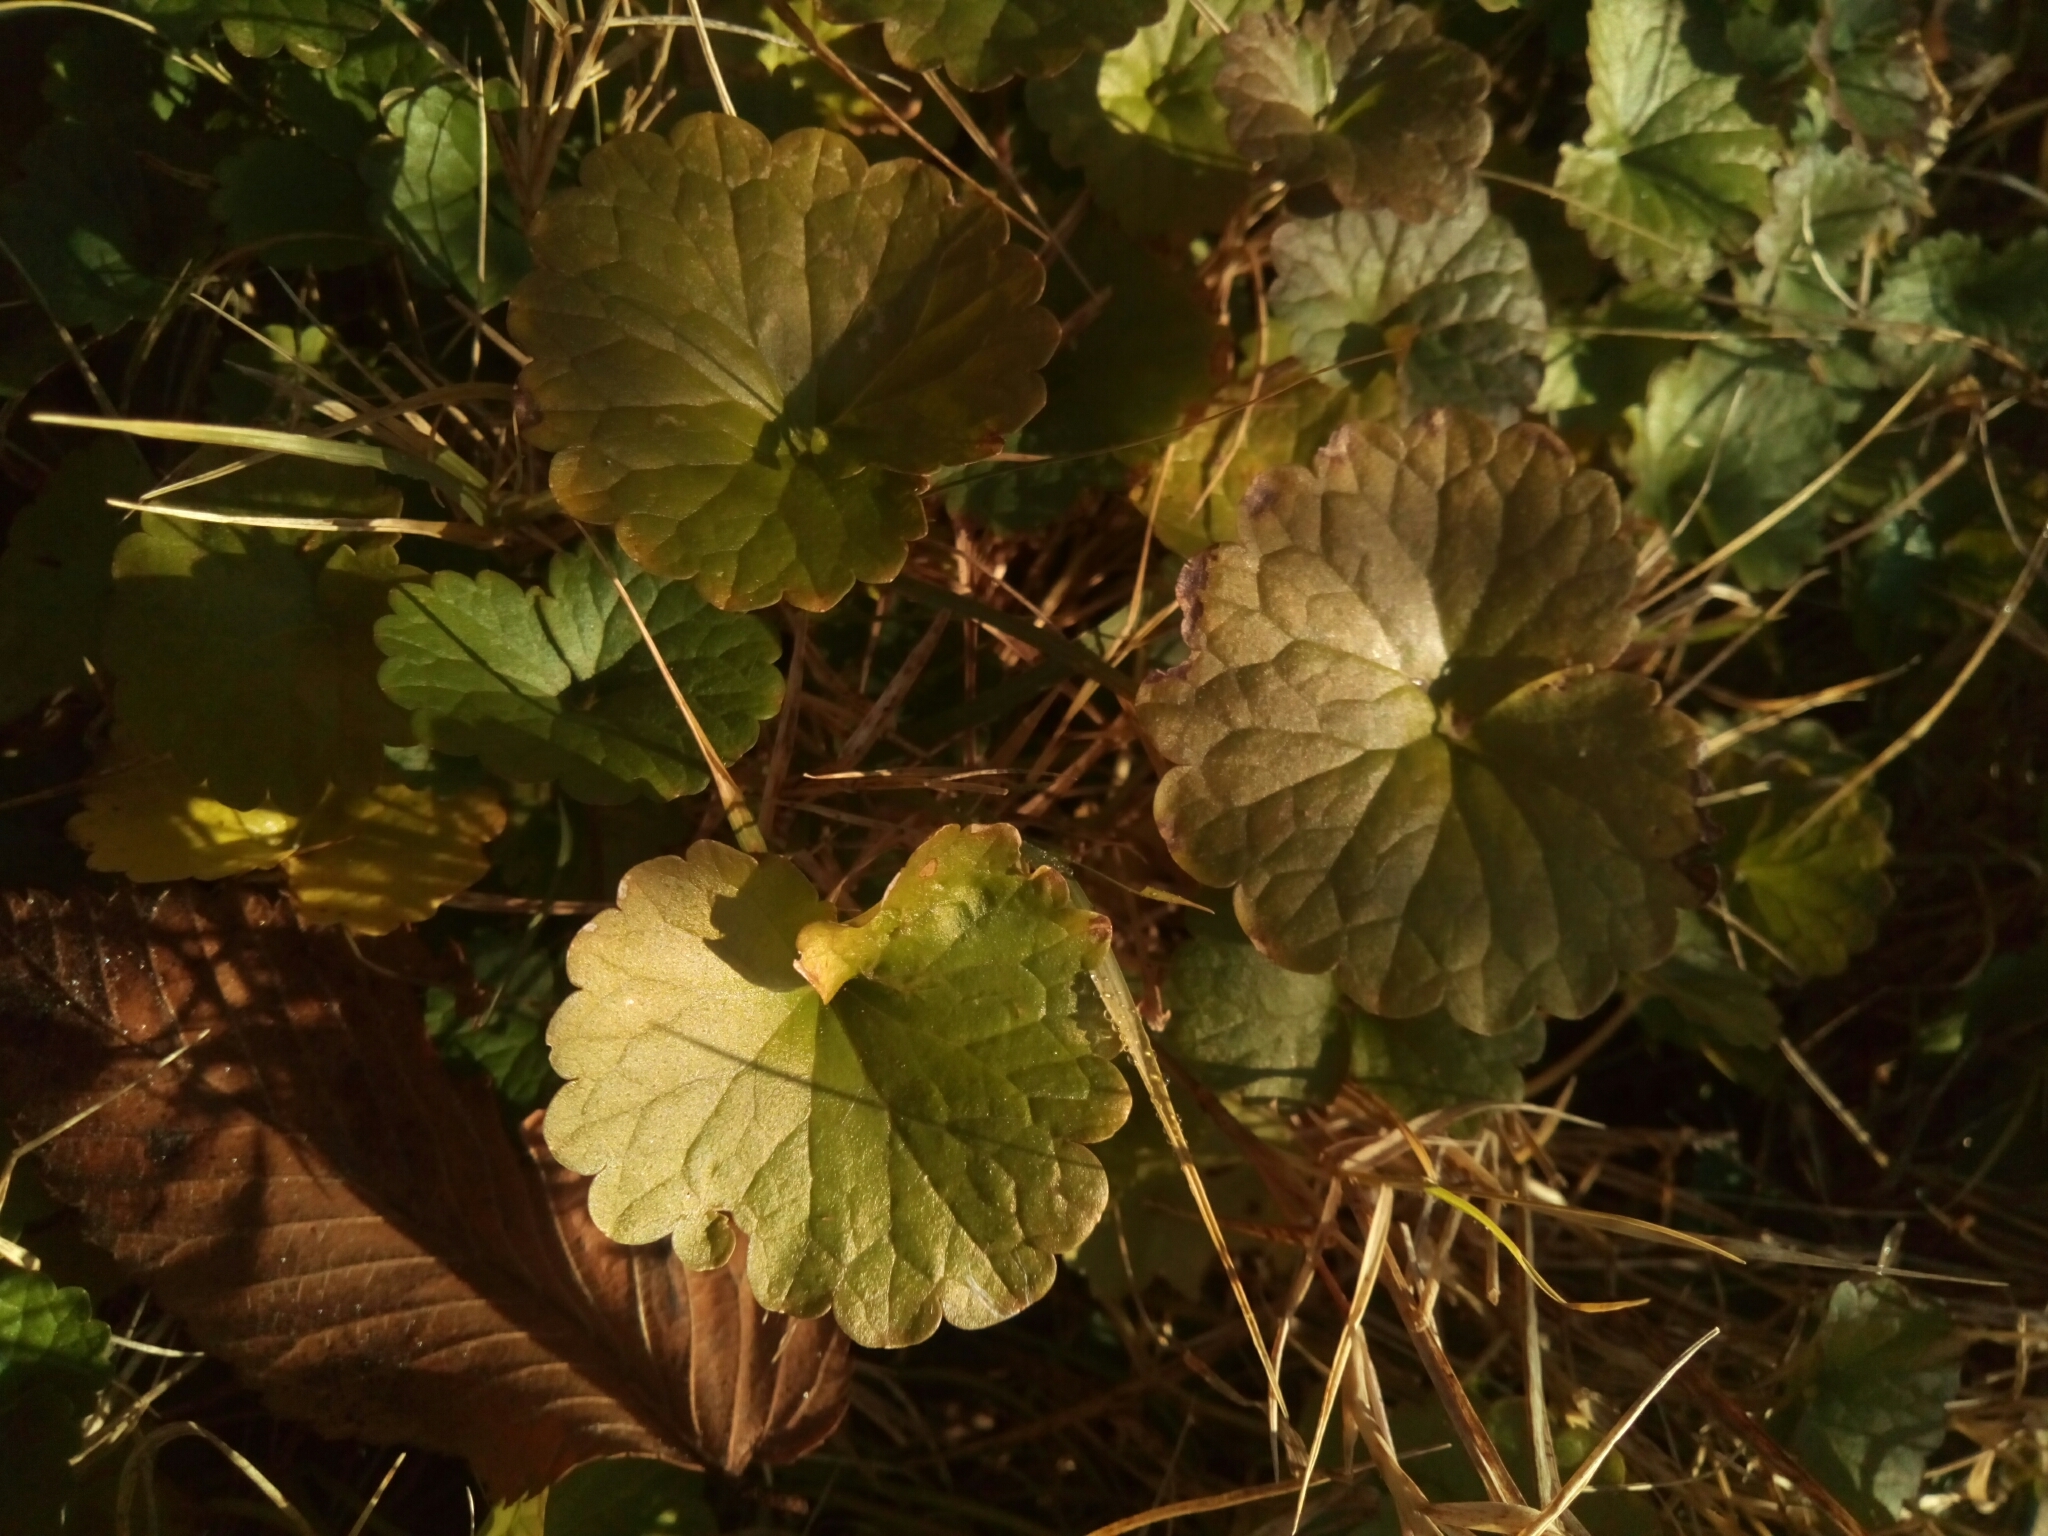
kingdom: Plantae
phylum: Tracheophyta
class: Magnoliopsida
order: Lamiales
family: Lamiaceae
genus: Glechoma
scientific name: Glechoma hederacea
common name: Ground ivy
